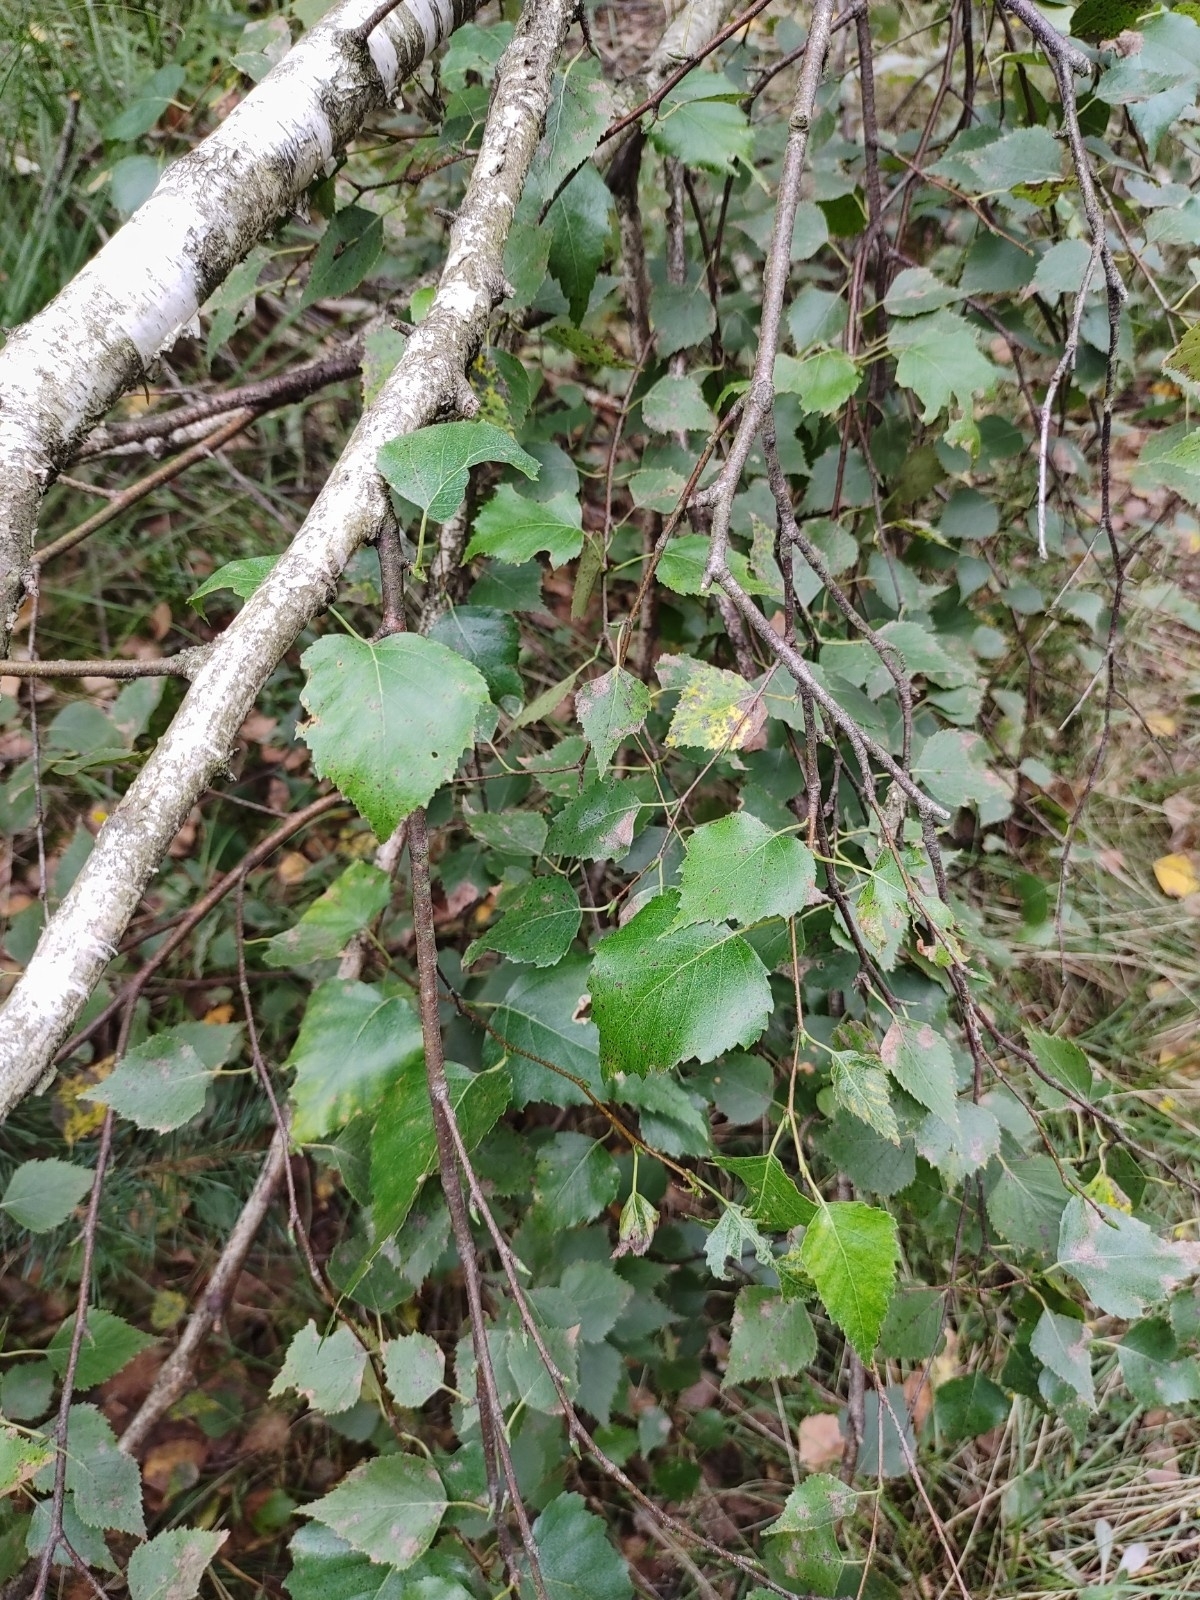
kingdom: Plantae
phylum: Tracheophyta
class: Magnoliopsida
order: Fagales
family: Betulaceae
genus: Betula
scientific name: Betula pendula
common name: Silver birch
